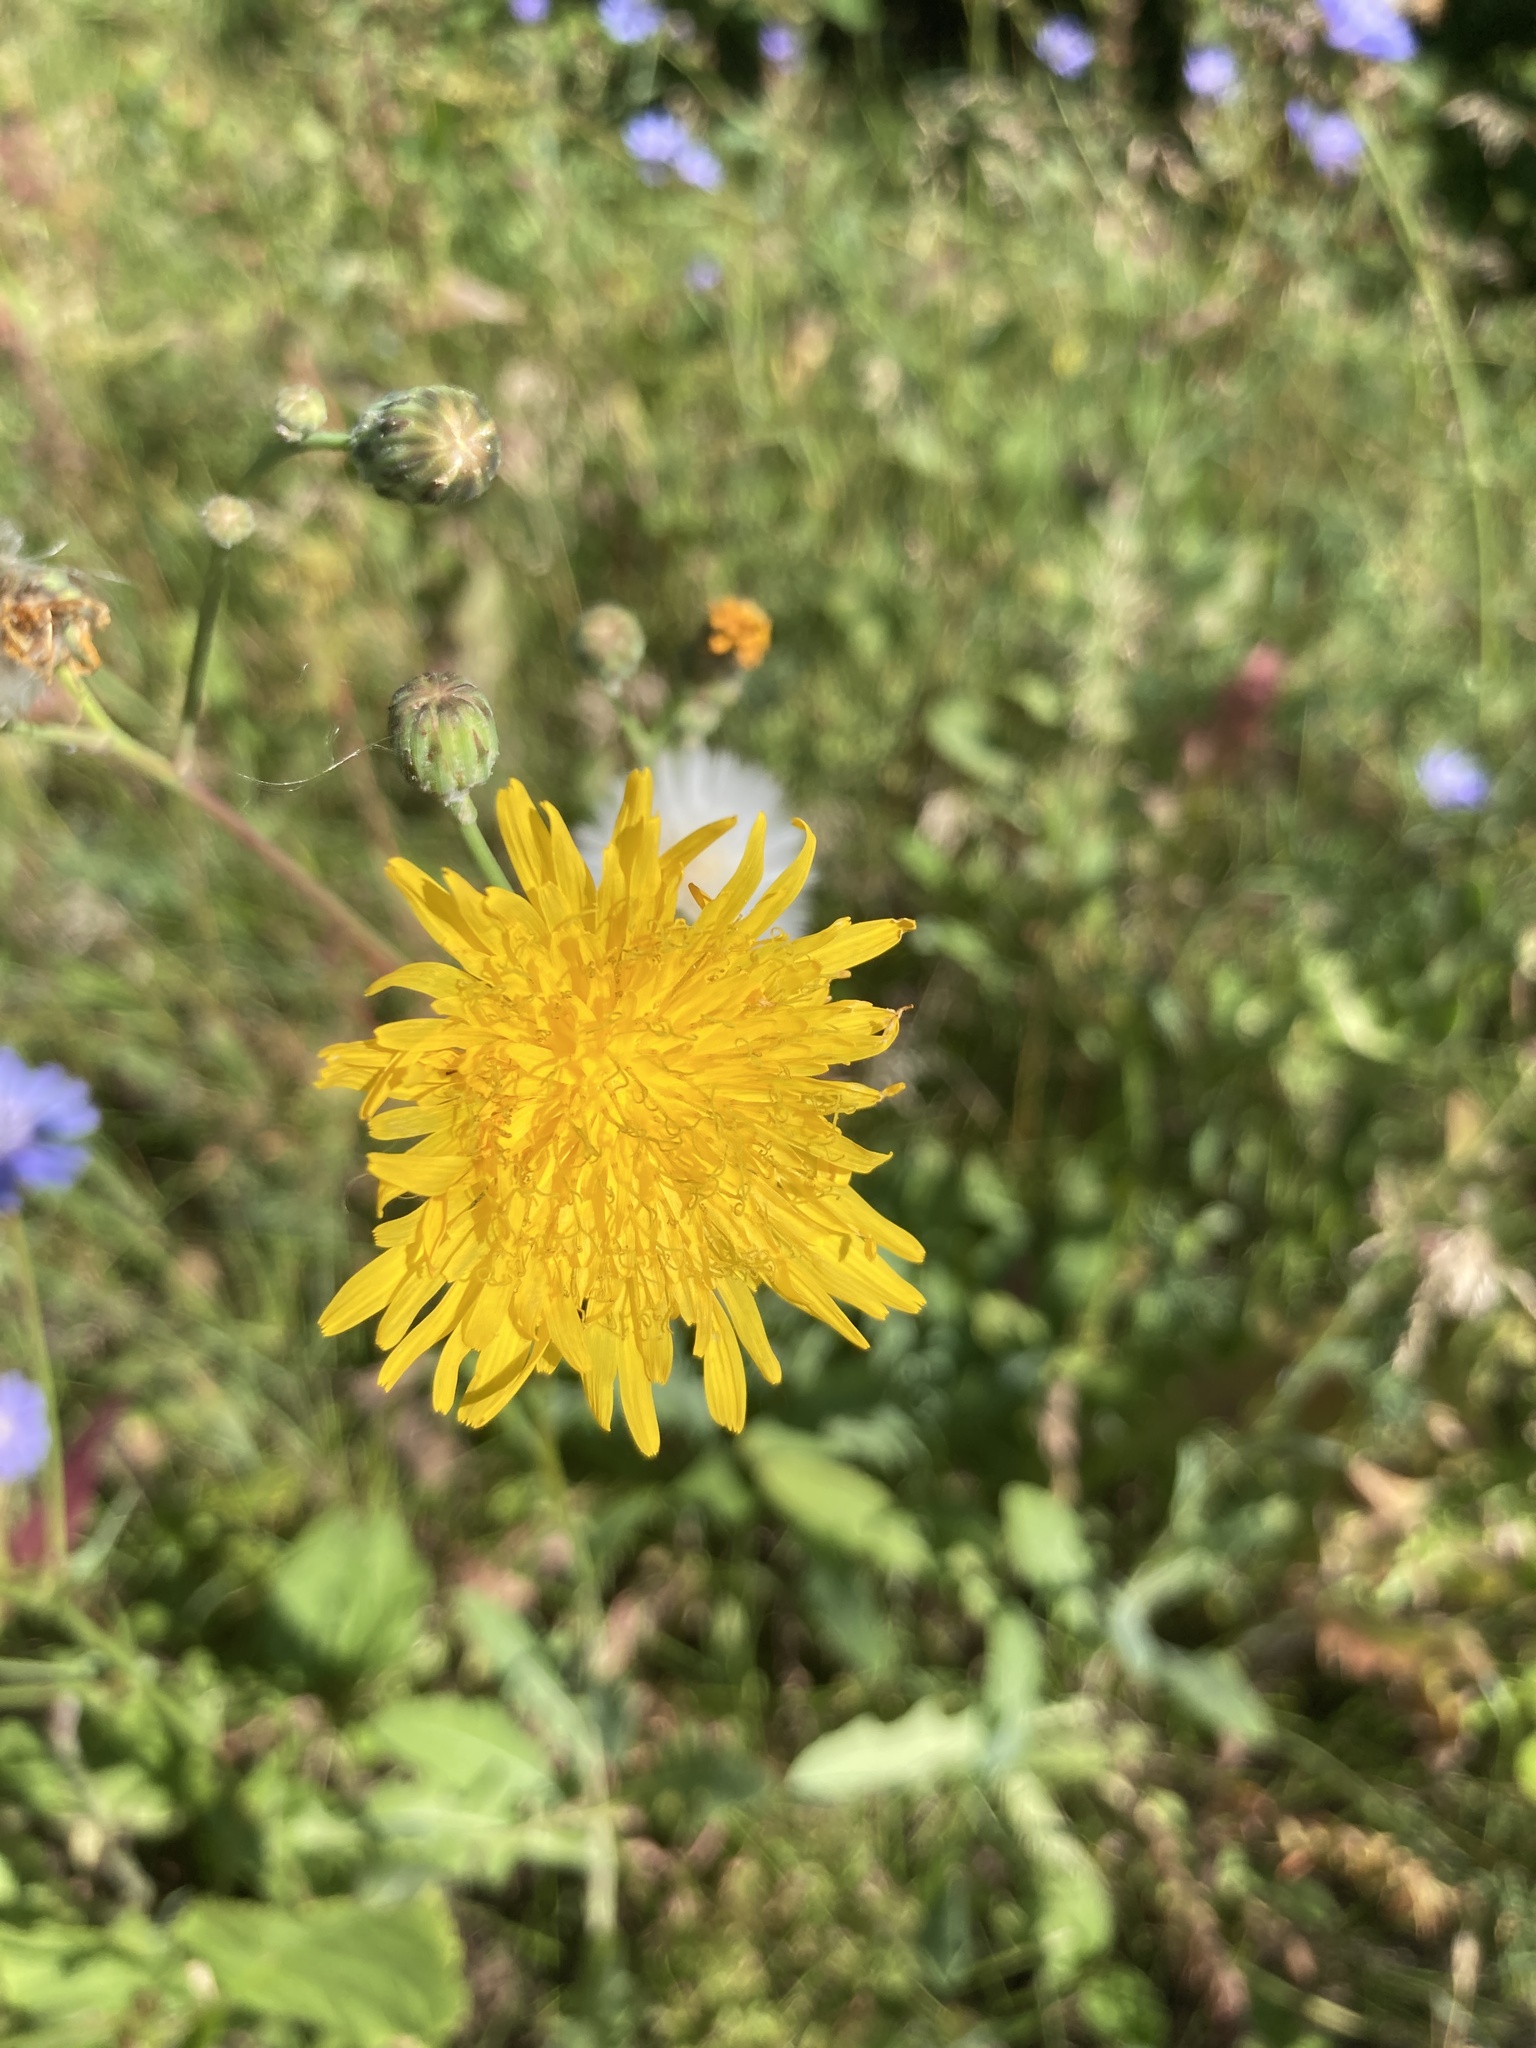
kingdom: Plantae
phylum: Tracheophyta
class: Magnoliopsida
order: Asterales
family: Asteraceae
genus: Sonchus
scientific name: Sonchus arvensis
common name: Perennial sow-thistle
